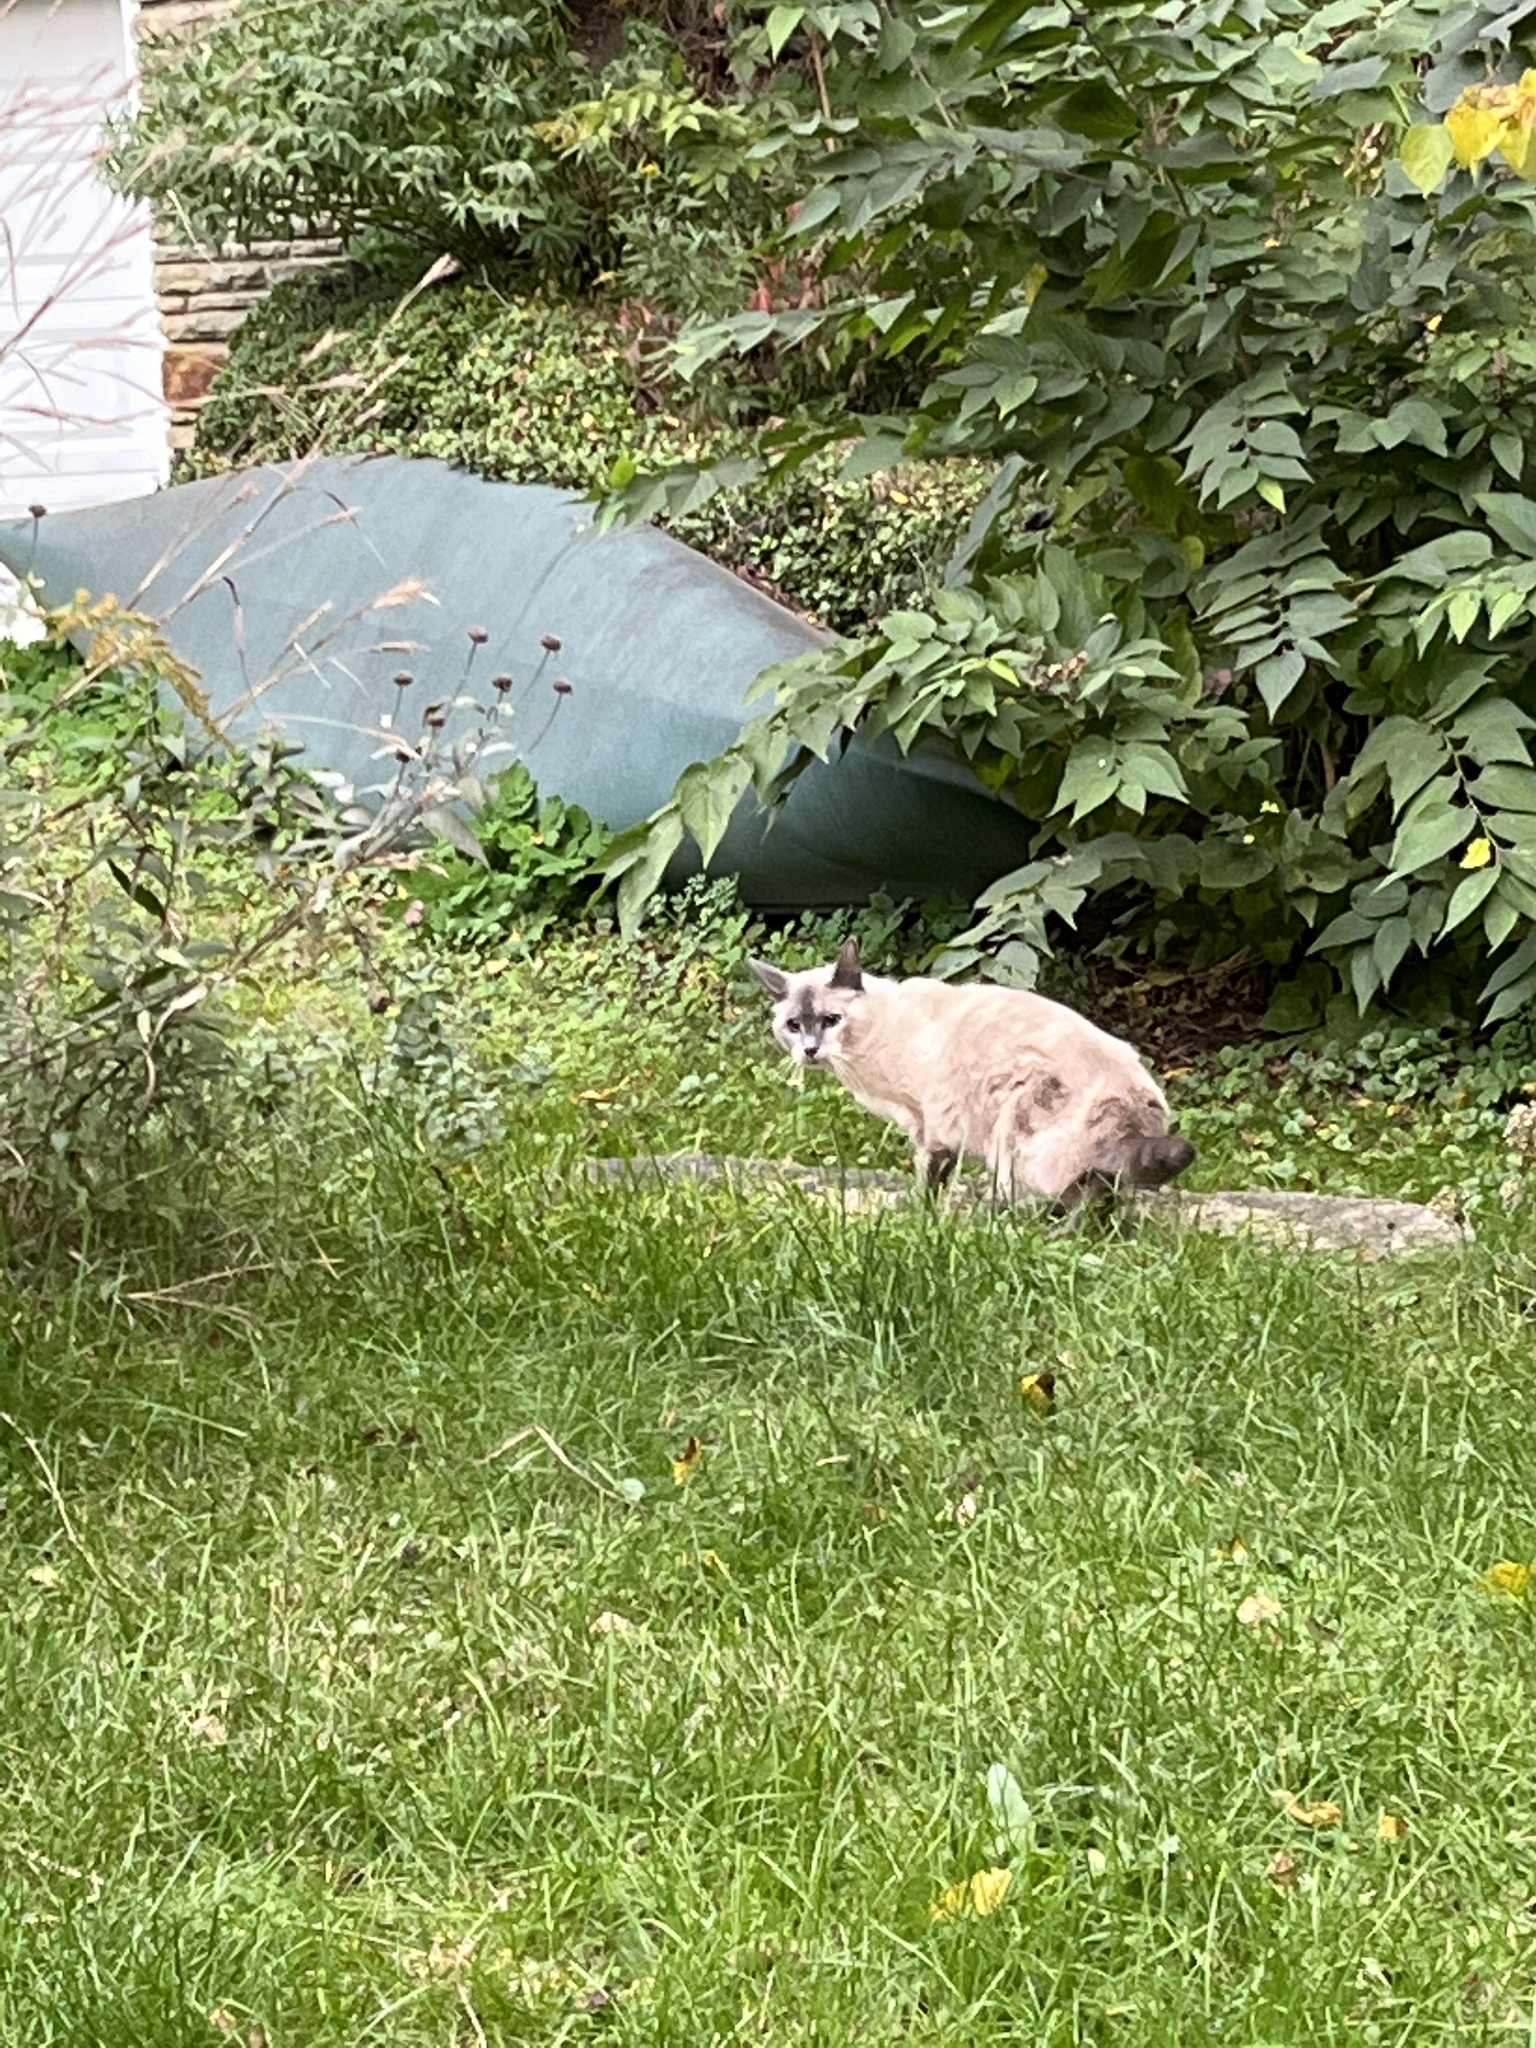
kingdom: Animalia
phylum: Chordata
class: Mammalia
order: Carnivora
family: Felidae
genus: Felis
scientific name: Felis catus
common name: Domestic cat
